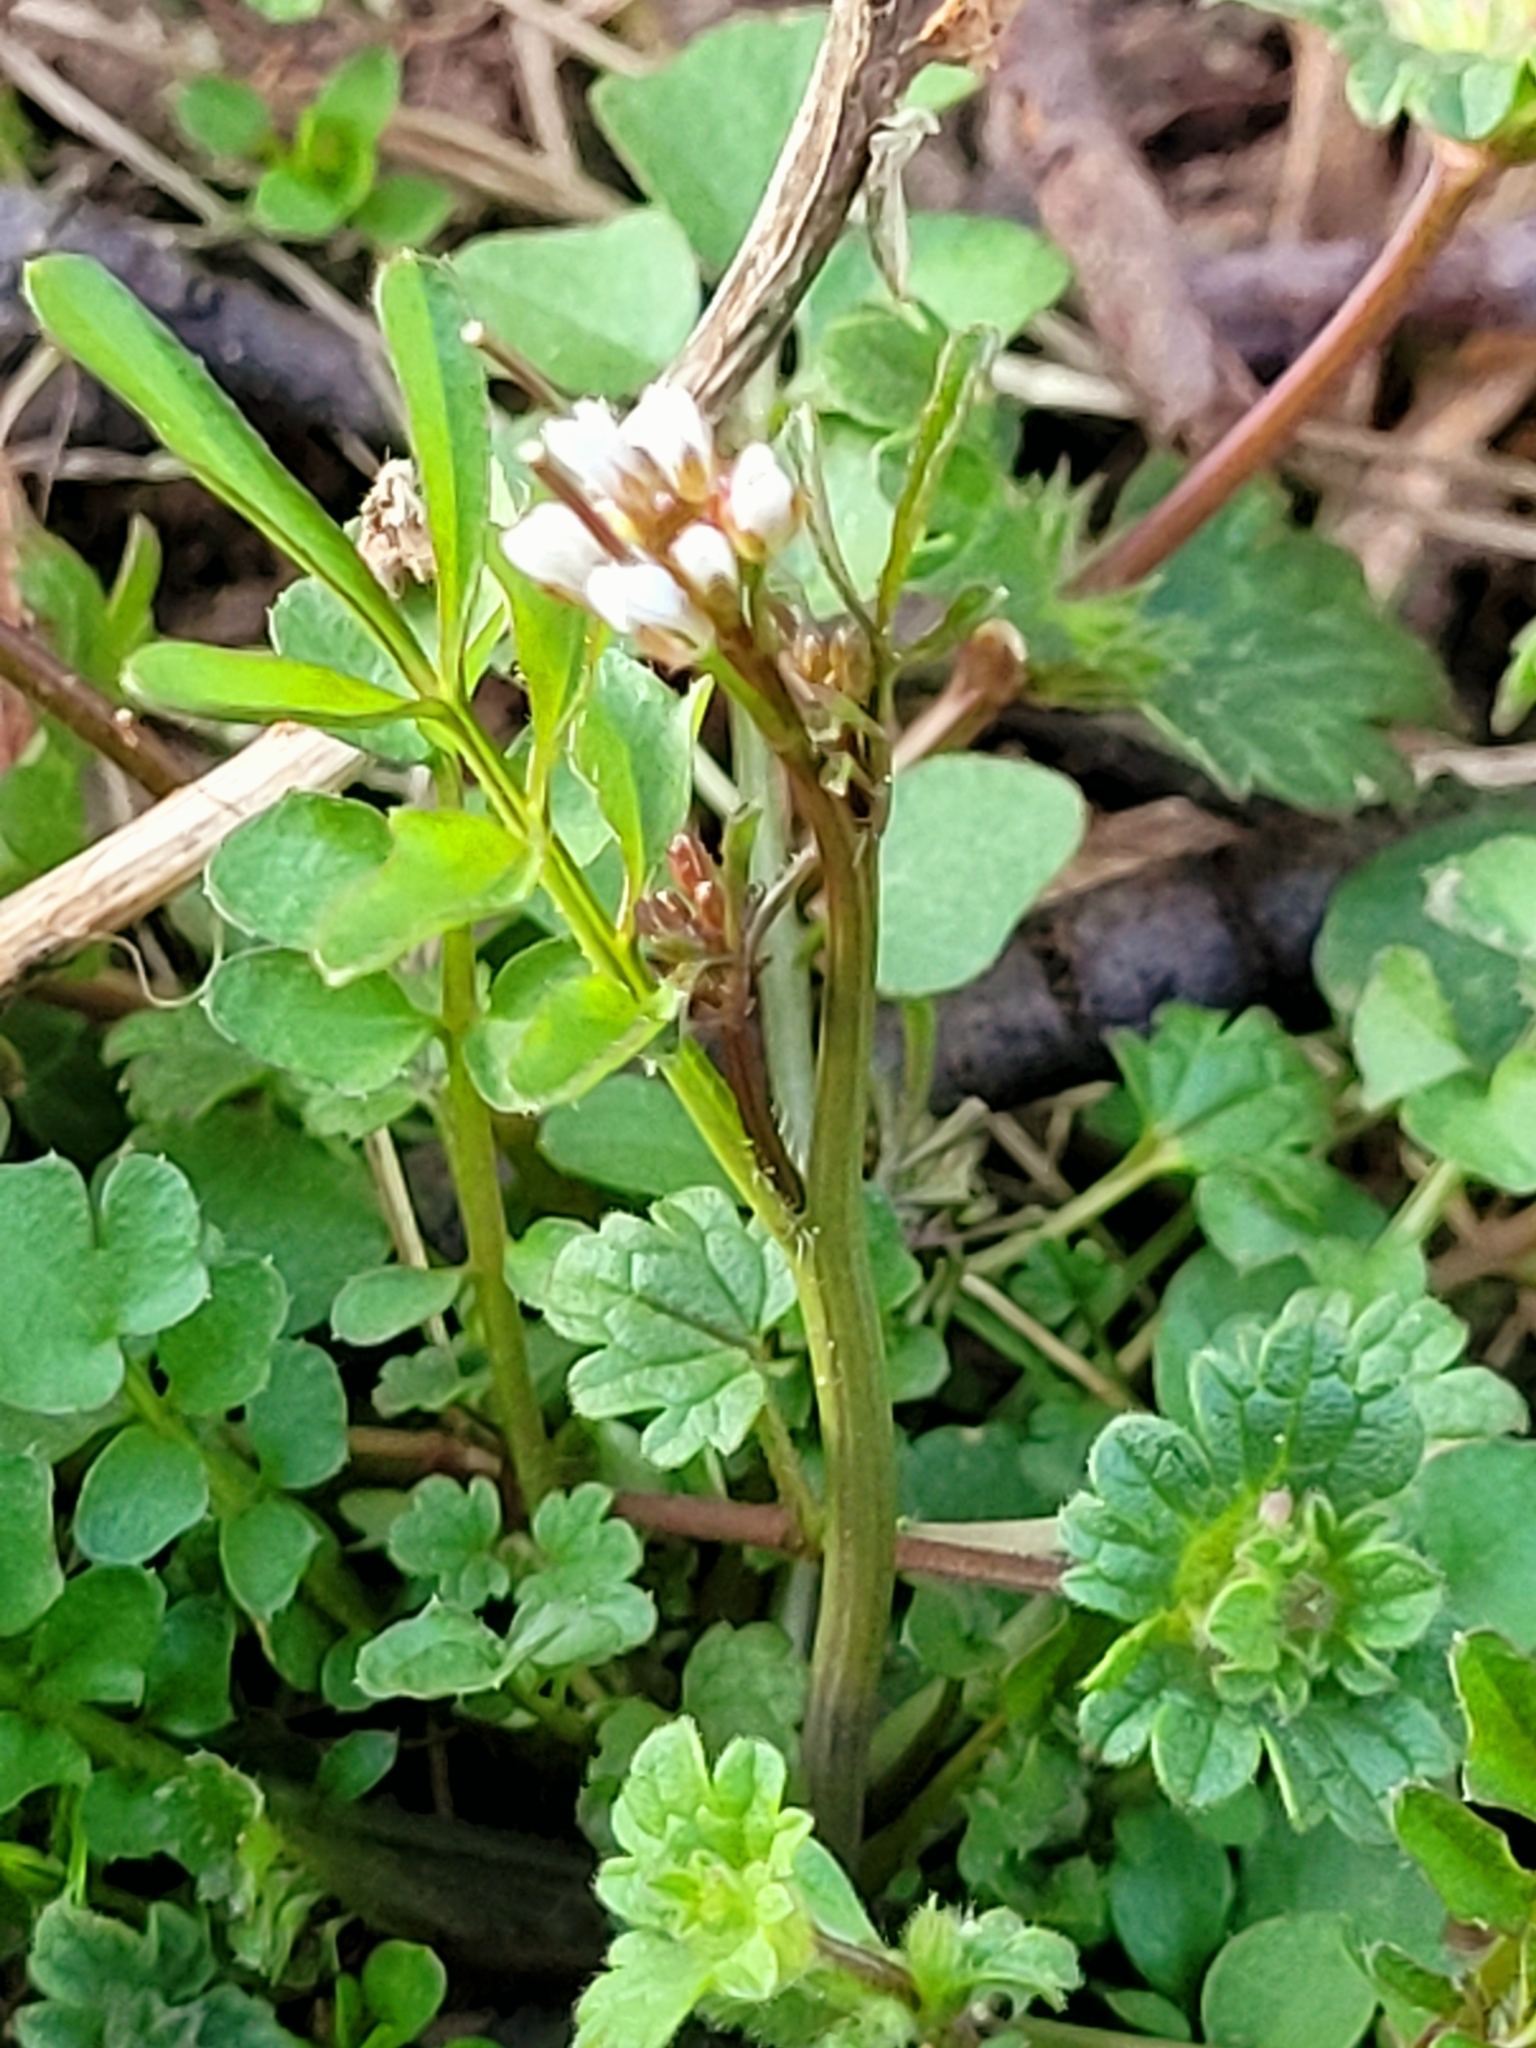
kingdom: Plantae
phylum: Tracheophyta
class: Magnoliopsida
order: Brassicales
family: Brassicaceae
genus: Cardamine
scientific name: Cardamine hirsuta
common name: Hairy bittercress
